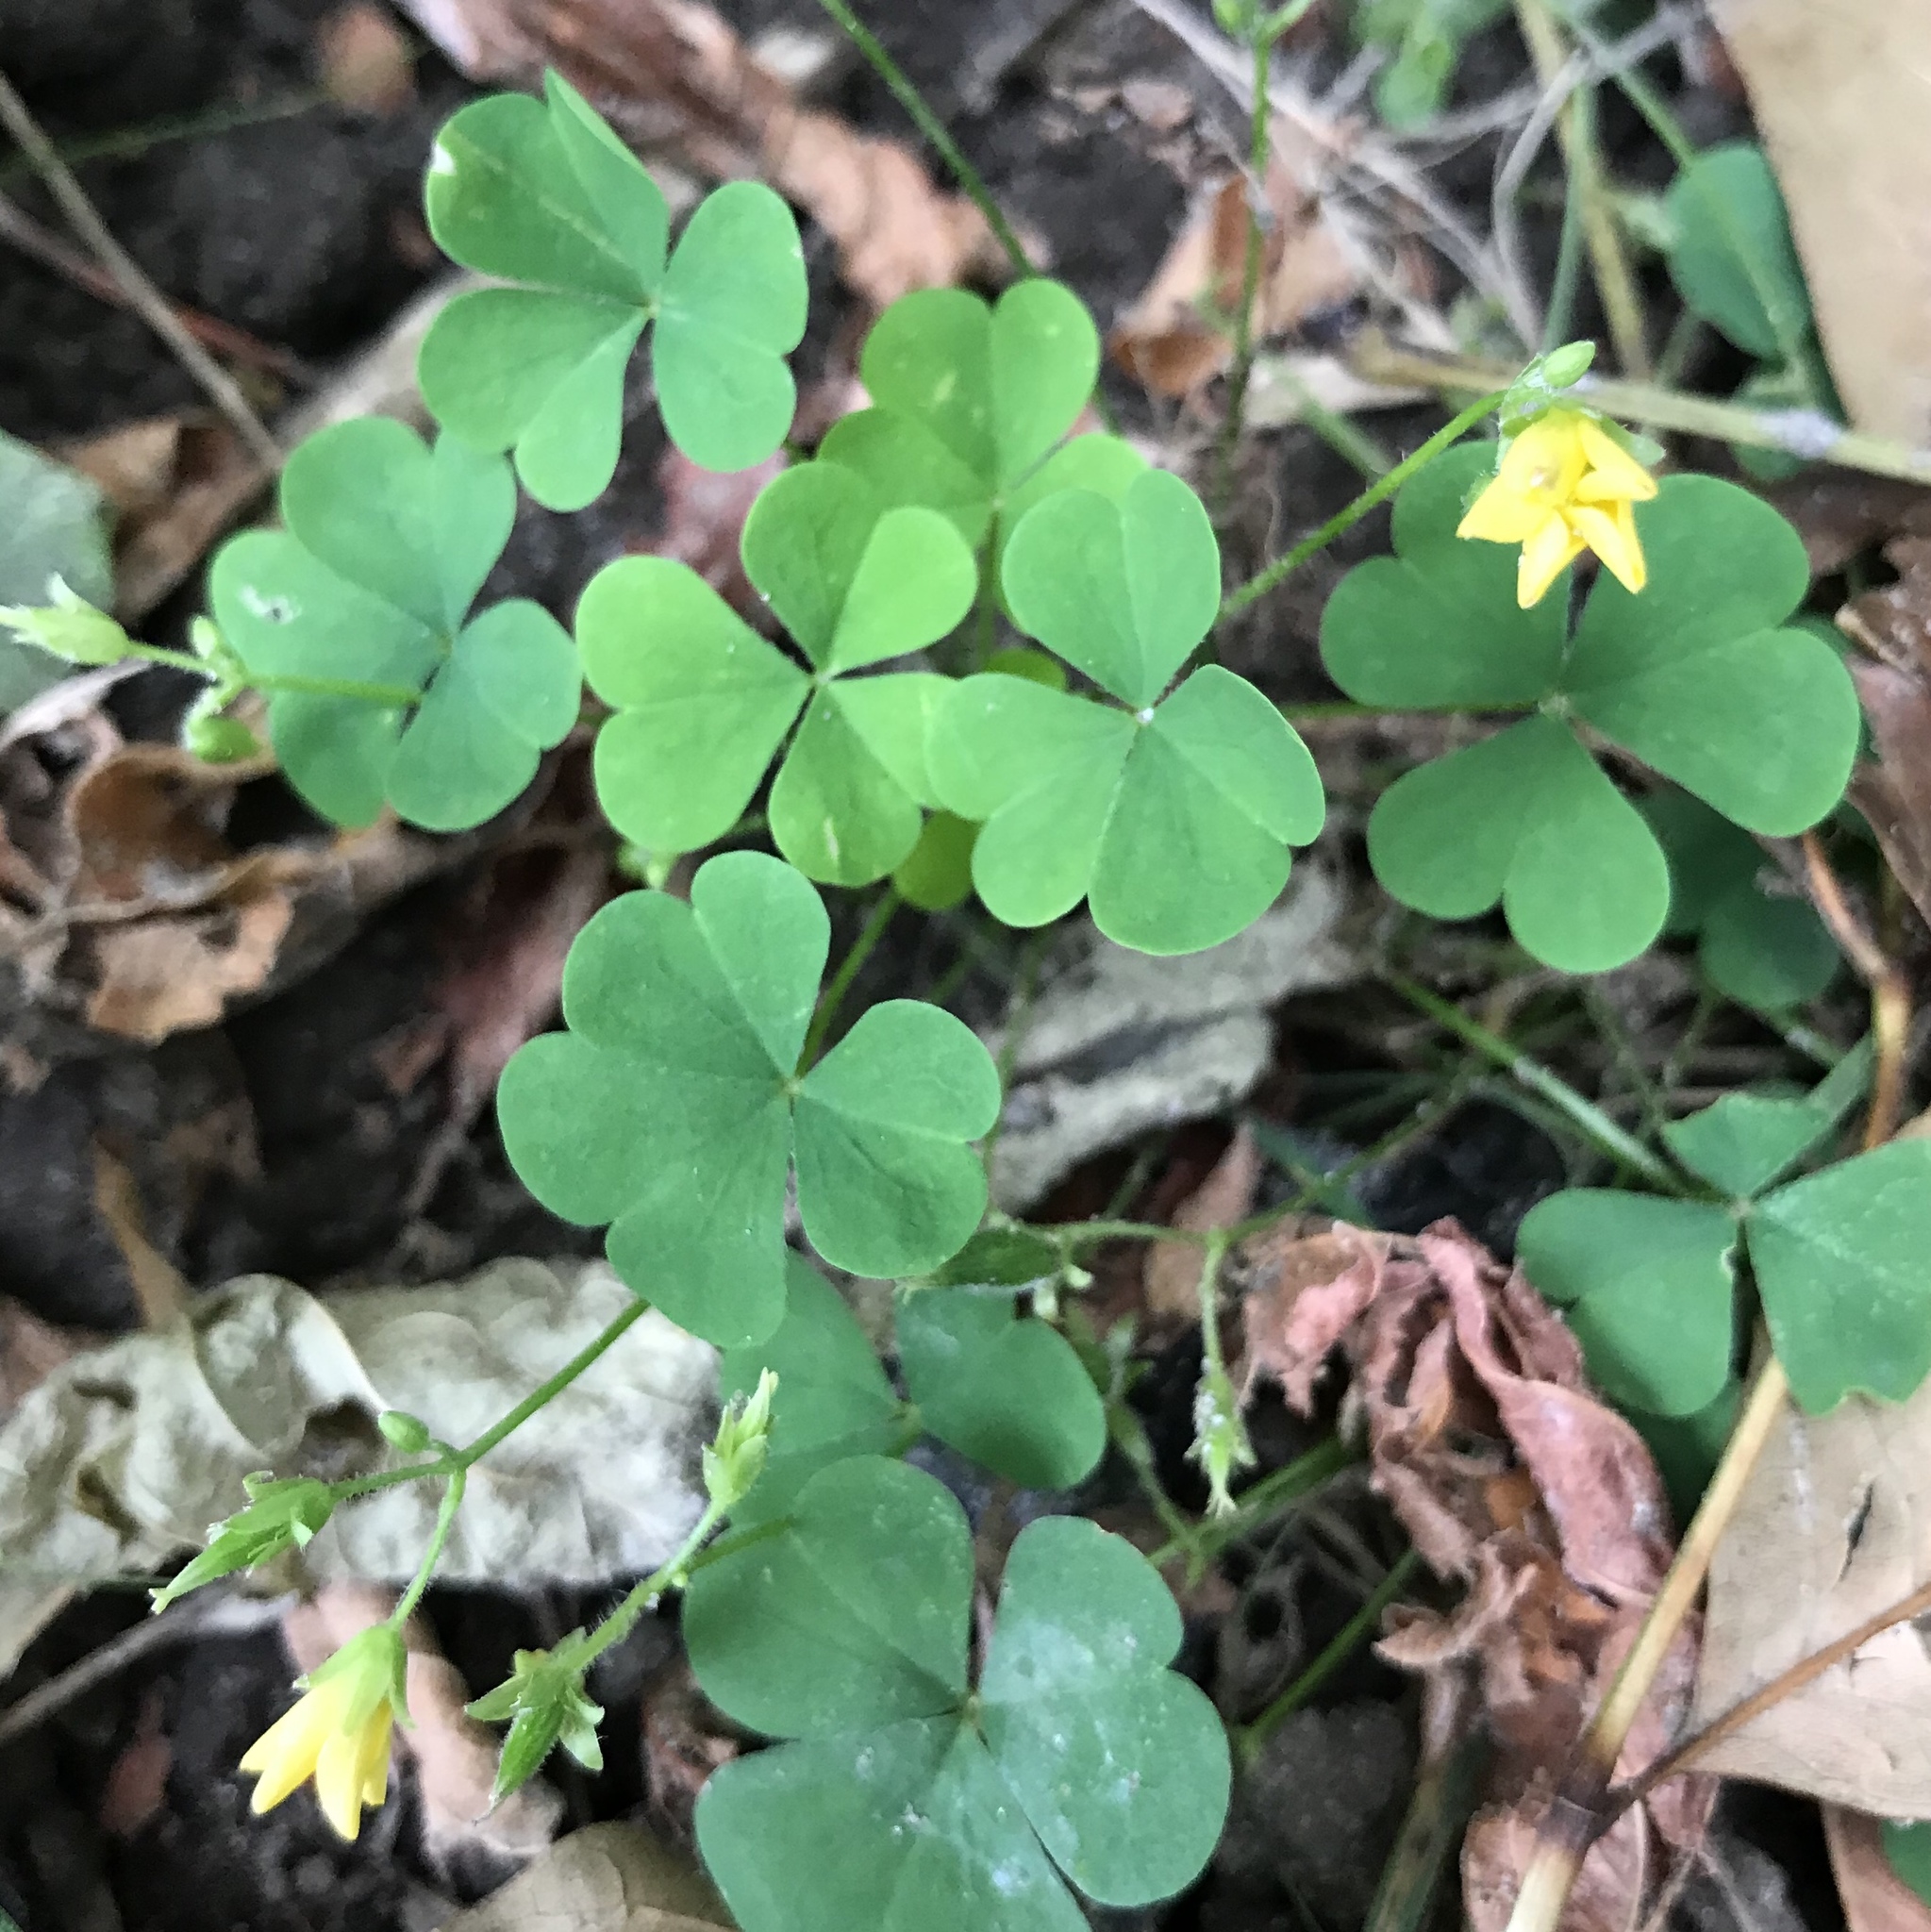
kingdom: Plantae
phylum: Tracheophyta
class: Magnoliopsida
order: Oxalidales
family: Oxalidaceae
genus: Oxalis
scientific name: Oxalis stricta
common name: Upright yellow-sorrel
